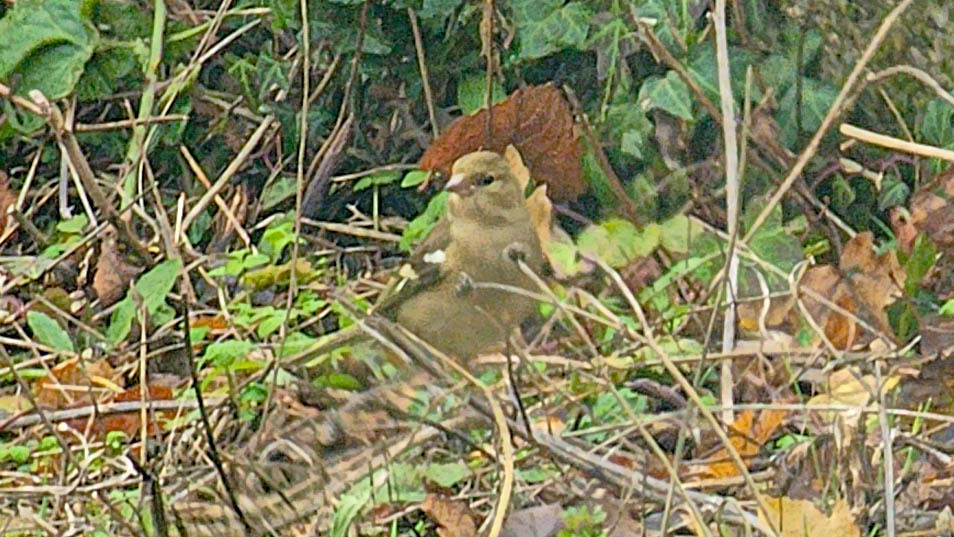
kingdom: Animalia
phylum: Chordata
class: Aves
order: Passeriformes
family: Fringillidae
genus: Fringilla
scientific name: Fringilla coelebs
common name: Common chaffinch
